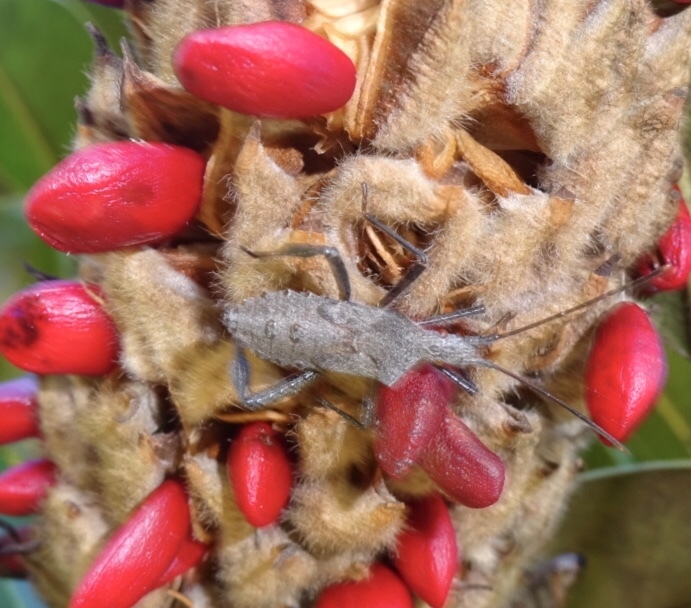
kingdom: Animalia
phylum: Arthropoda
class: Insecta
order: Hemiptera
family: Coreidae
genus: Leptoglossus
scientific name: Leptoglossus fulvicornis
